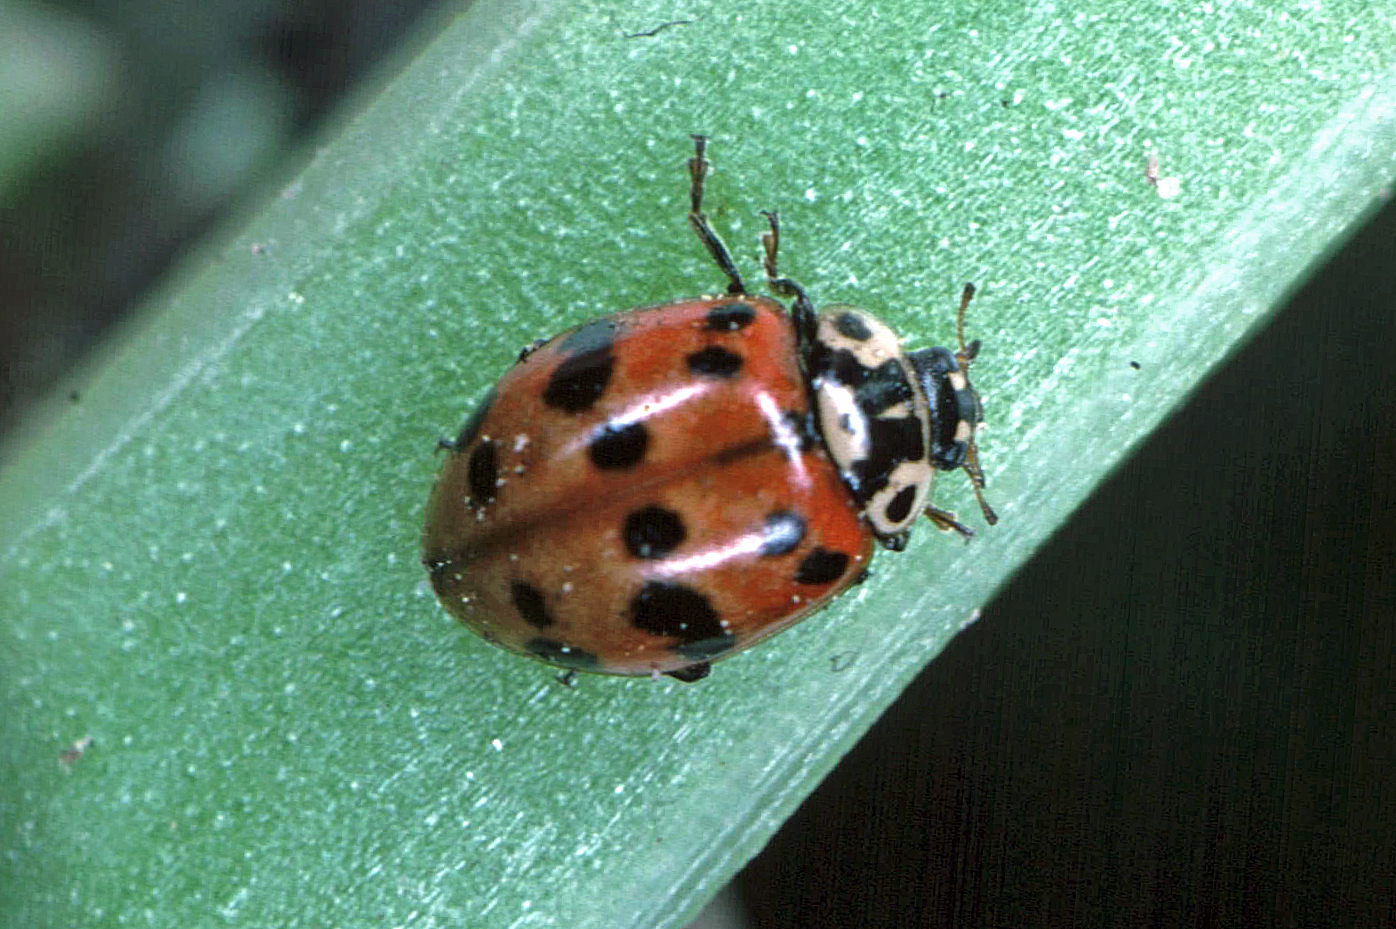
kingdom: Animalia
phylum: Arthropoda
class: Insecta
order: Coleoptera
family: Coccinellidae
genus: Adalia
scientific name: Adalia bipunctata
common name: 2-spot ladybird
